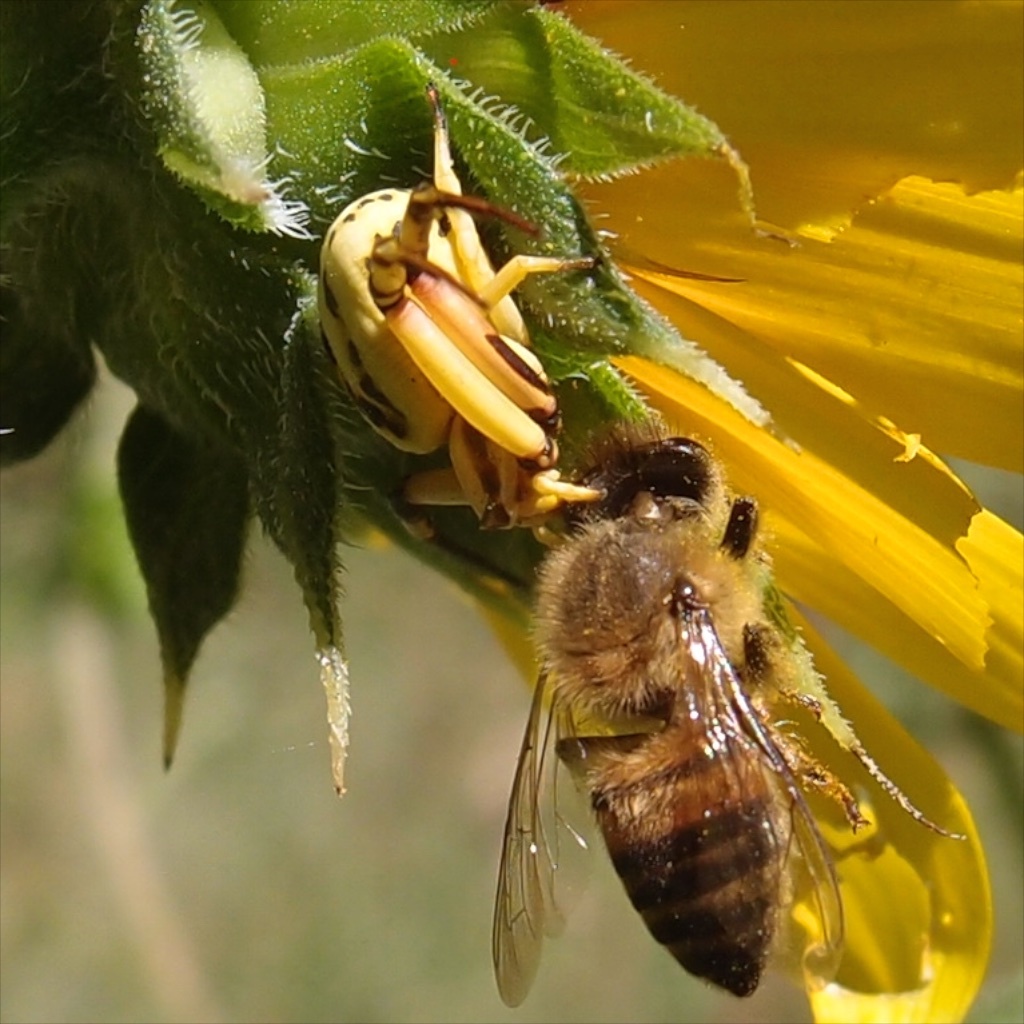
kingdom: Animalia
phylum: Arthropoda
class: Arachnida
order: Araneae
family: Thomisidae
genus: Misumenoides
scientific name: Misumenoides formosipes
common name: White-banded crab spider
